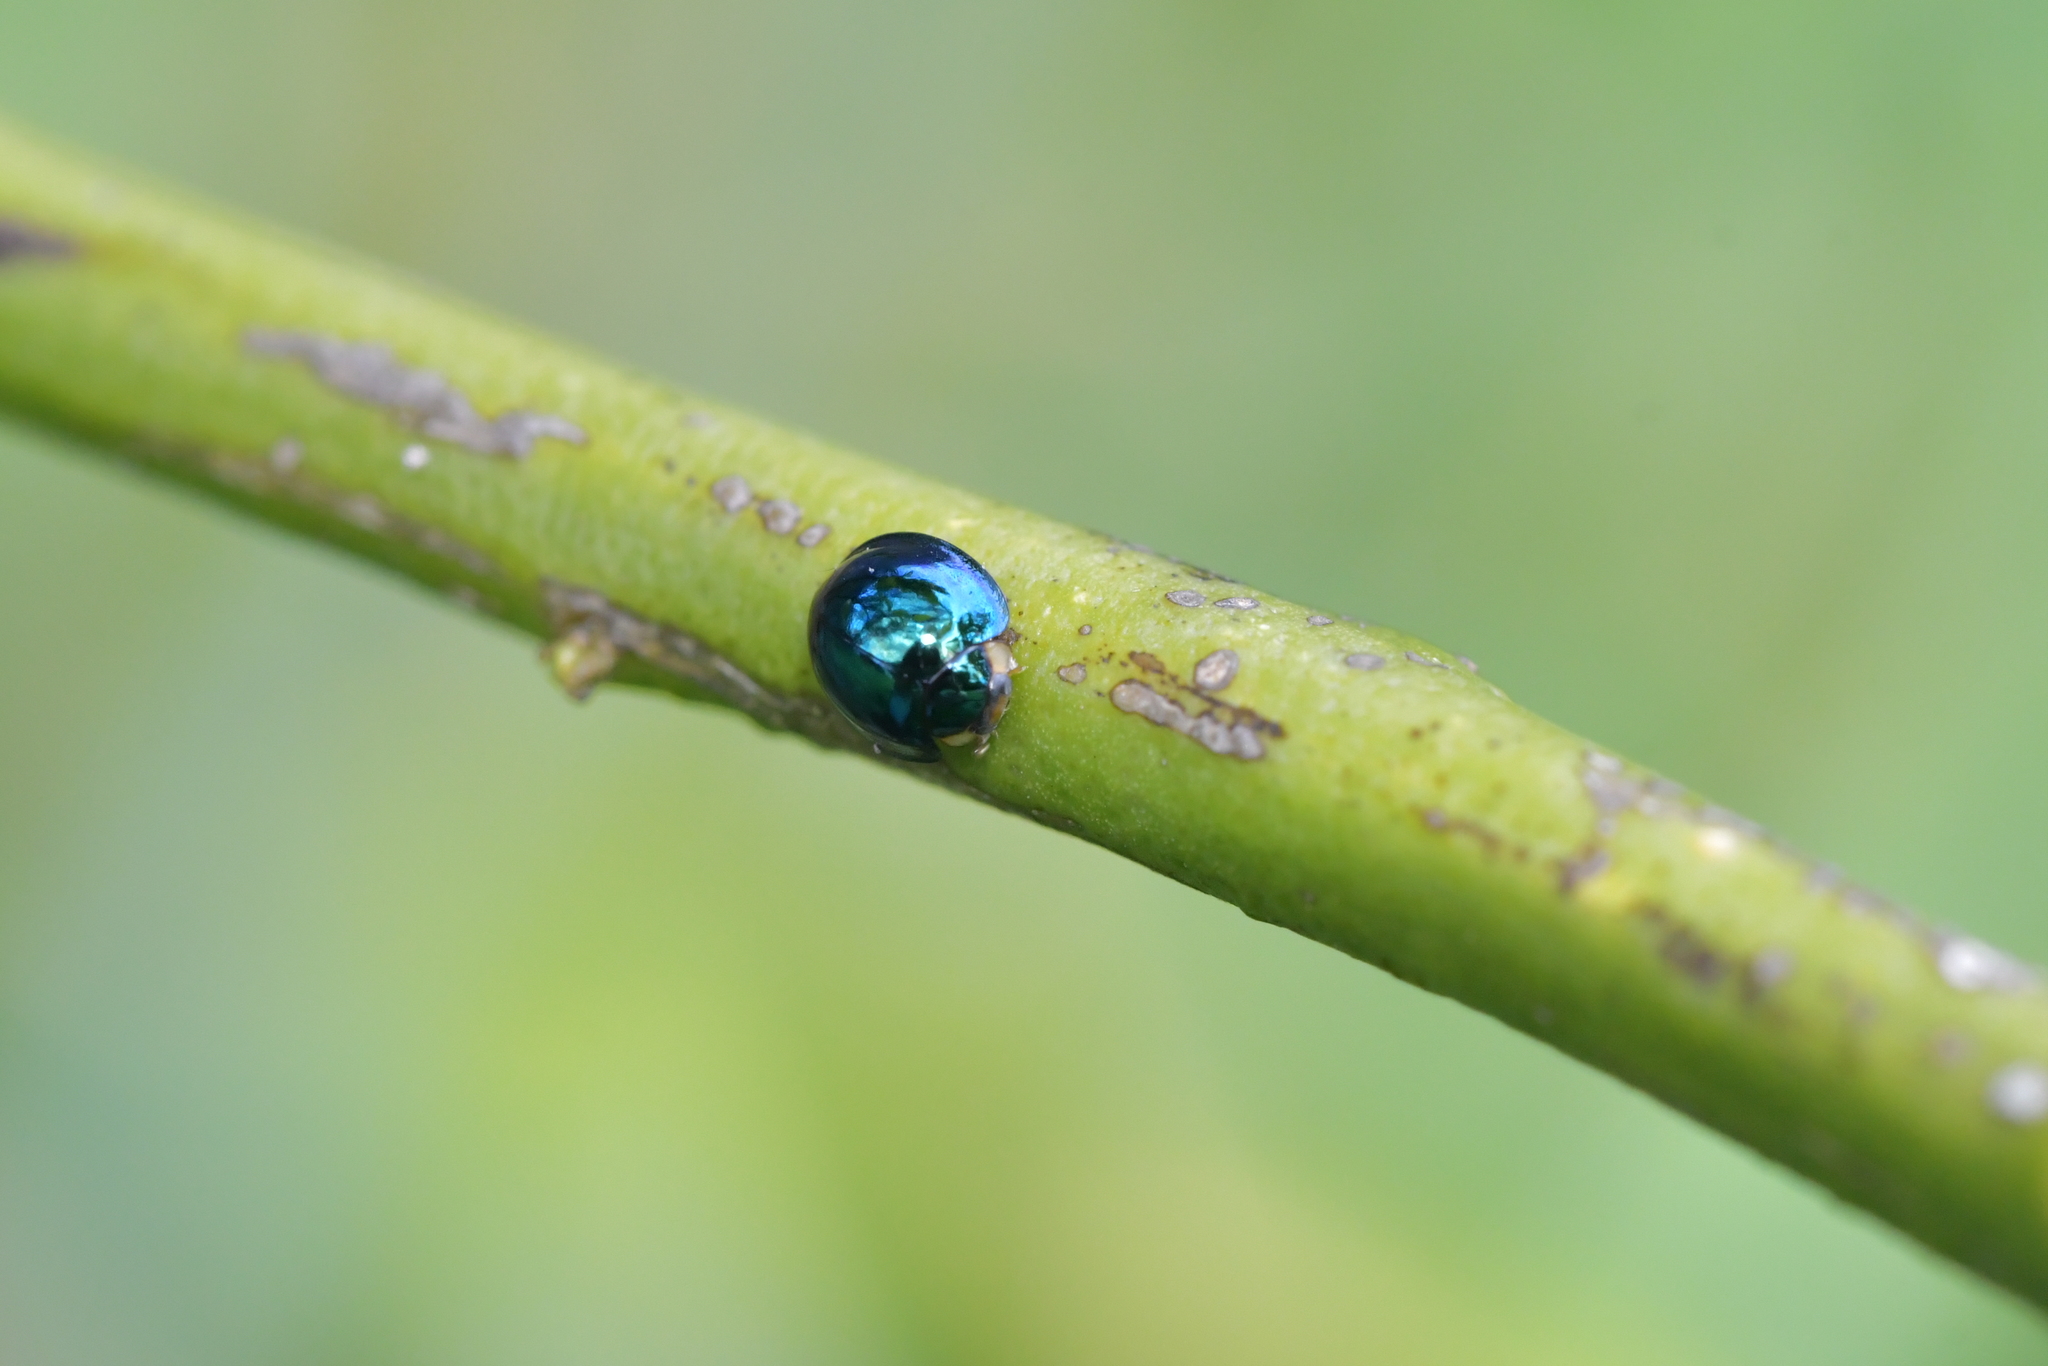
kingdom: Animalia
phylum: Arthropoda
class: Insecta
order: Coleoptera
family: Coccinellidae
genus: Halmus
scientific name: Halmus chalybeus
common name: Steel blue ladybird beetle
